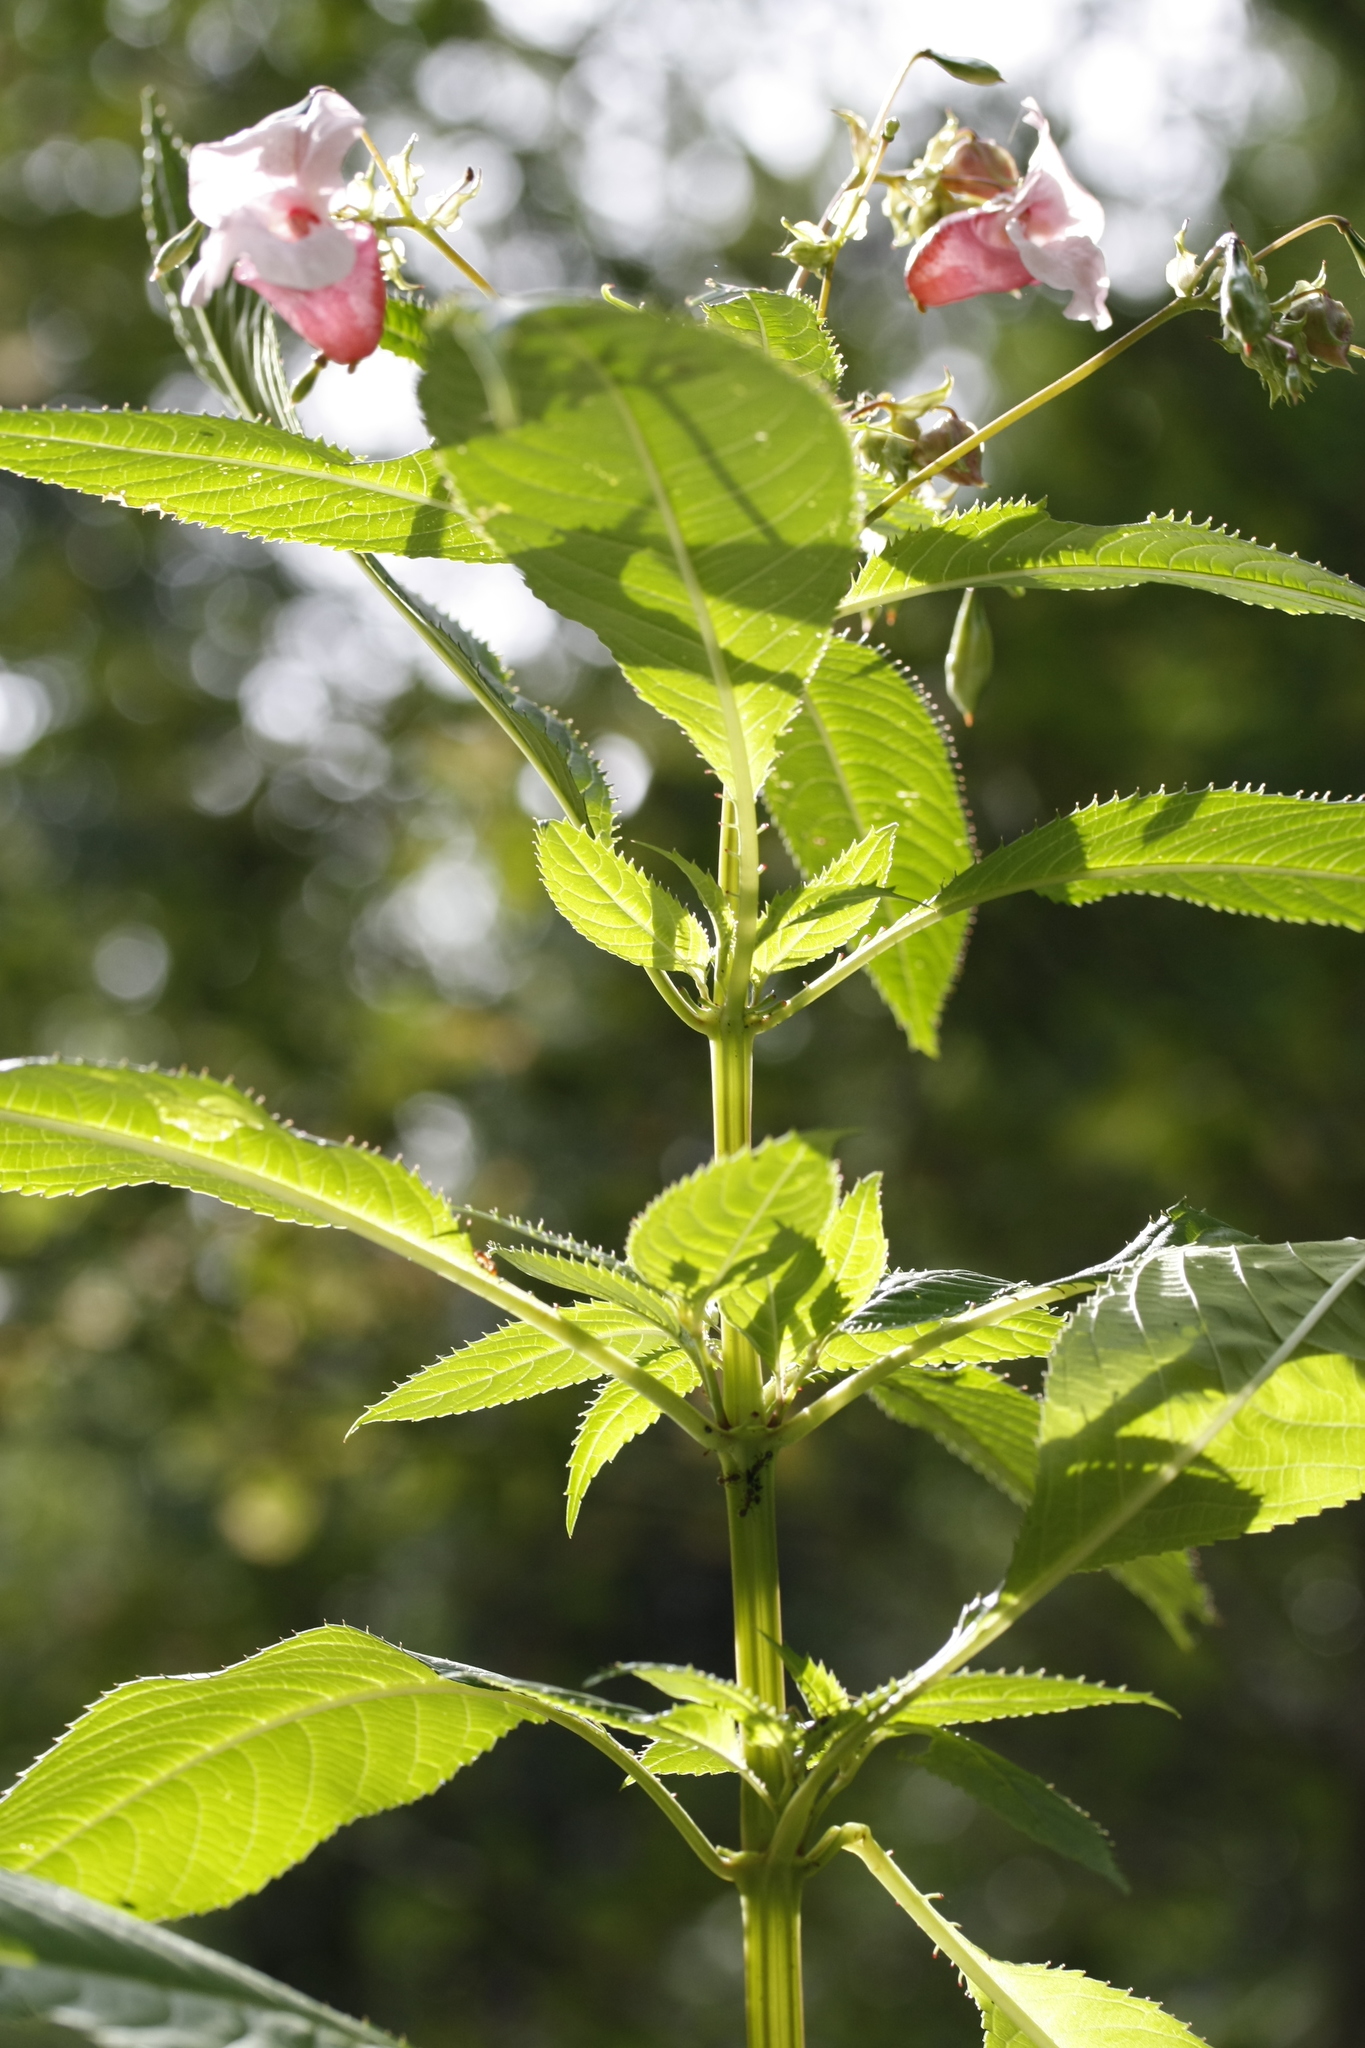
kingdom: Plantae
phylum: Tracheophyta
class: Magnoliopsida
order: Ericales
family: Balsaminaceae
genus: Impatiens
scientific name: Impatiens glandulifera
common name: Himalayan balsam
